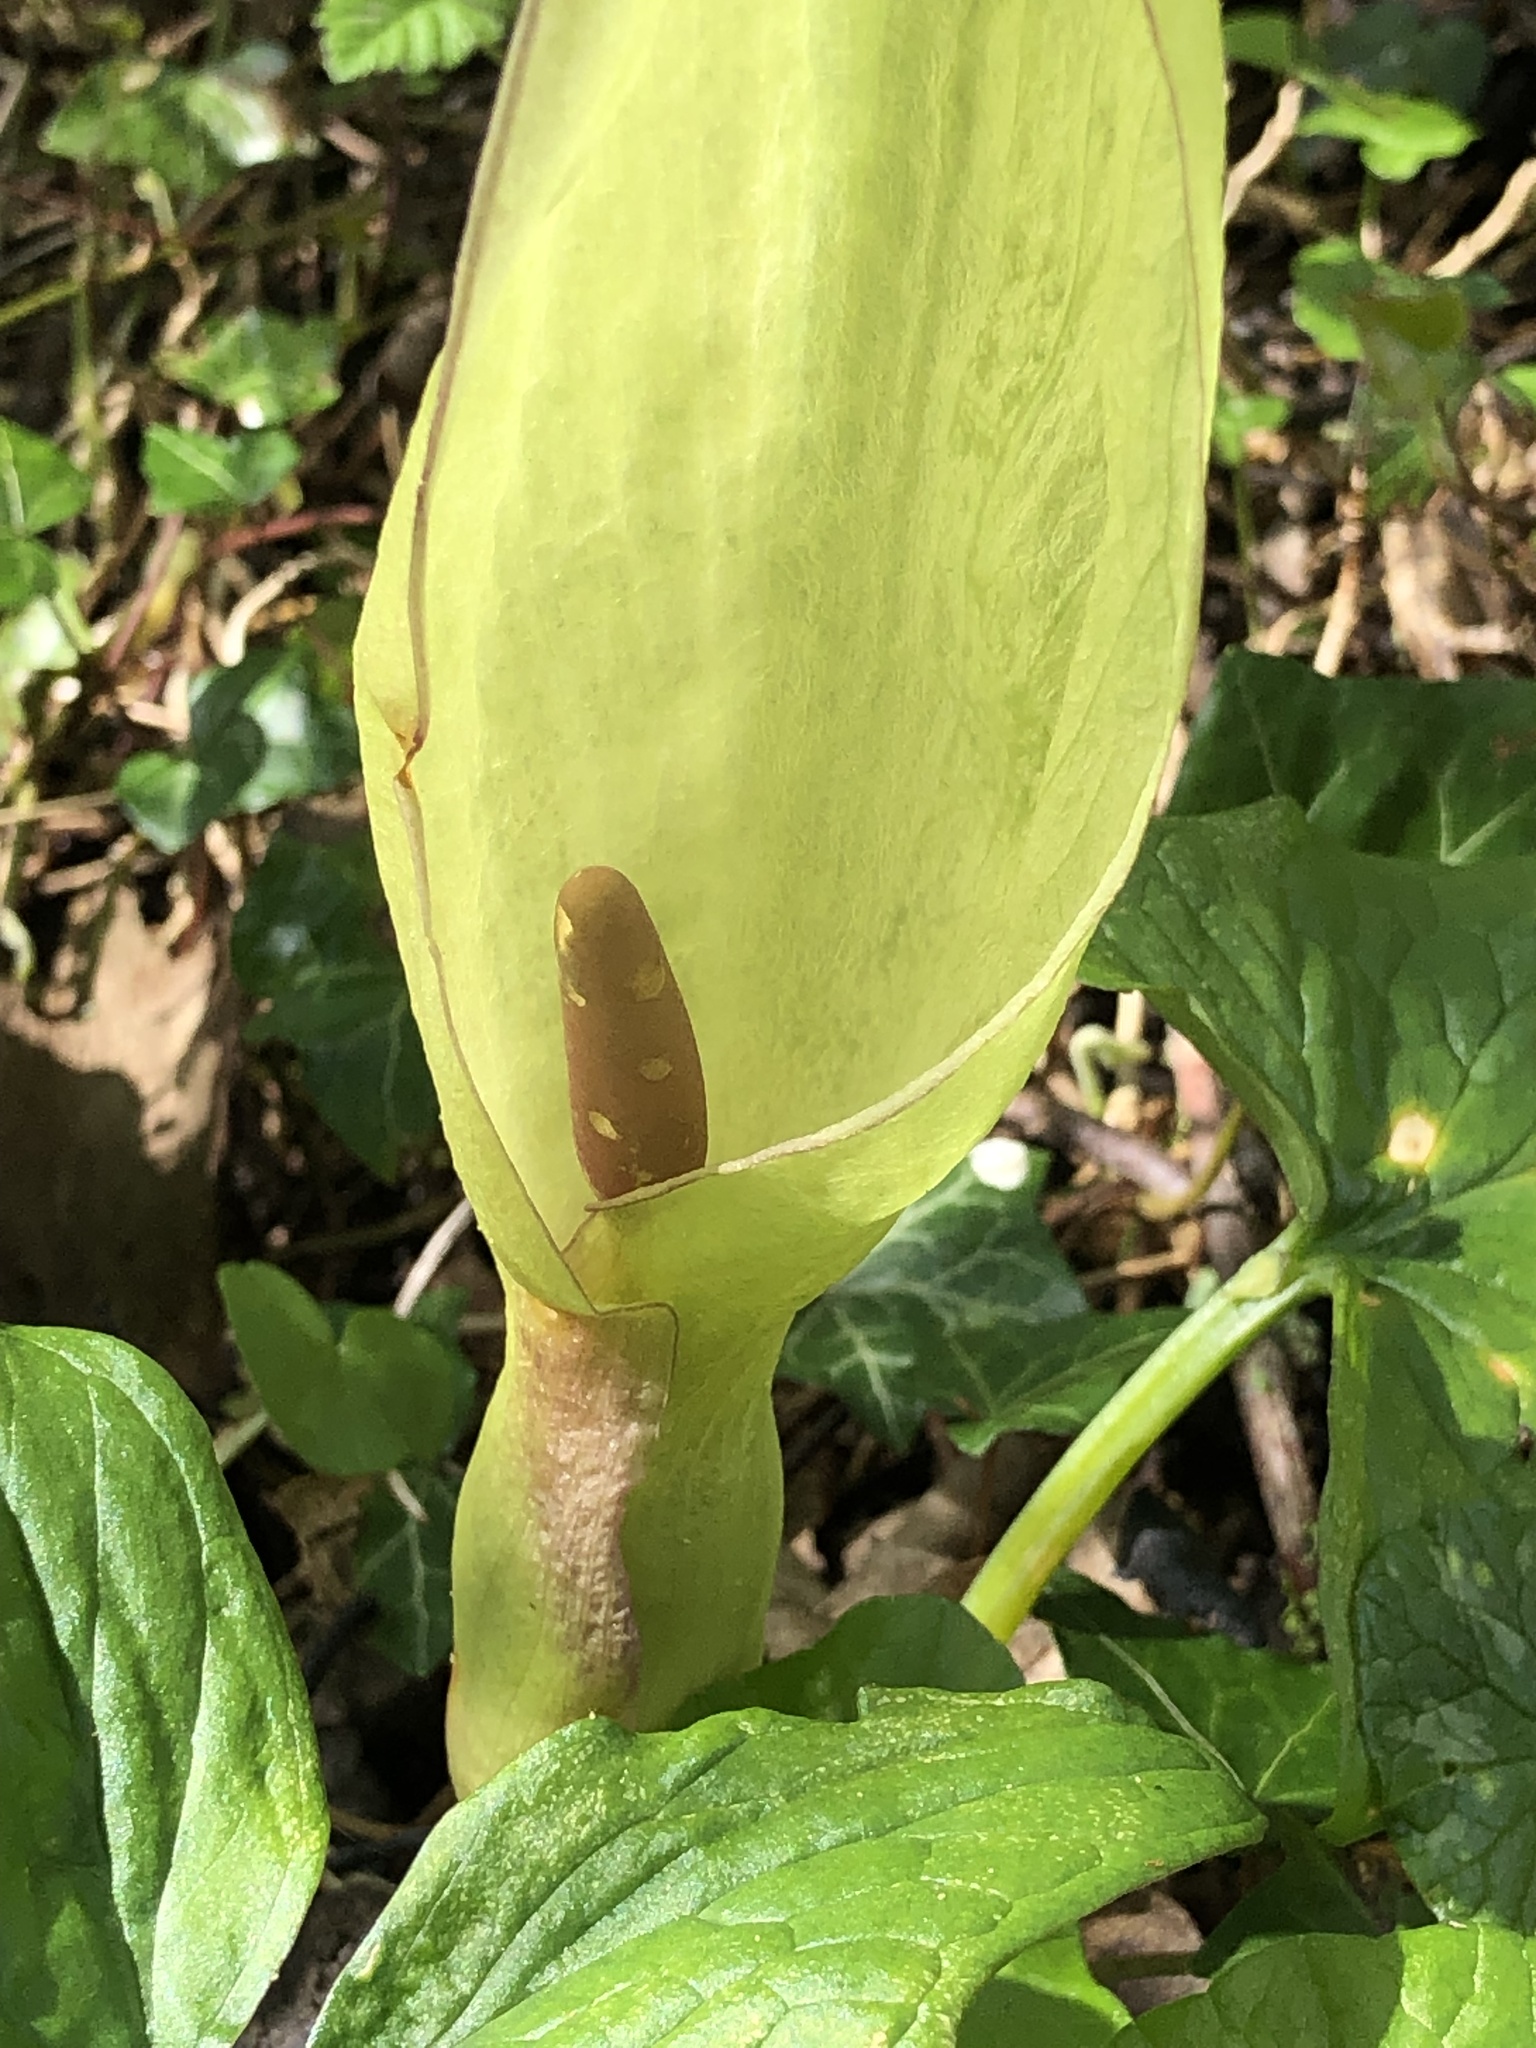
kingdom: Plantae
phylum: Tracheophyta
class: Liliopsida
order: Alismatales
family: Araceae
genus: Arum
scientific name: Arum maculatum
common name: Lords-and-ladies
